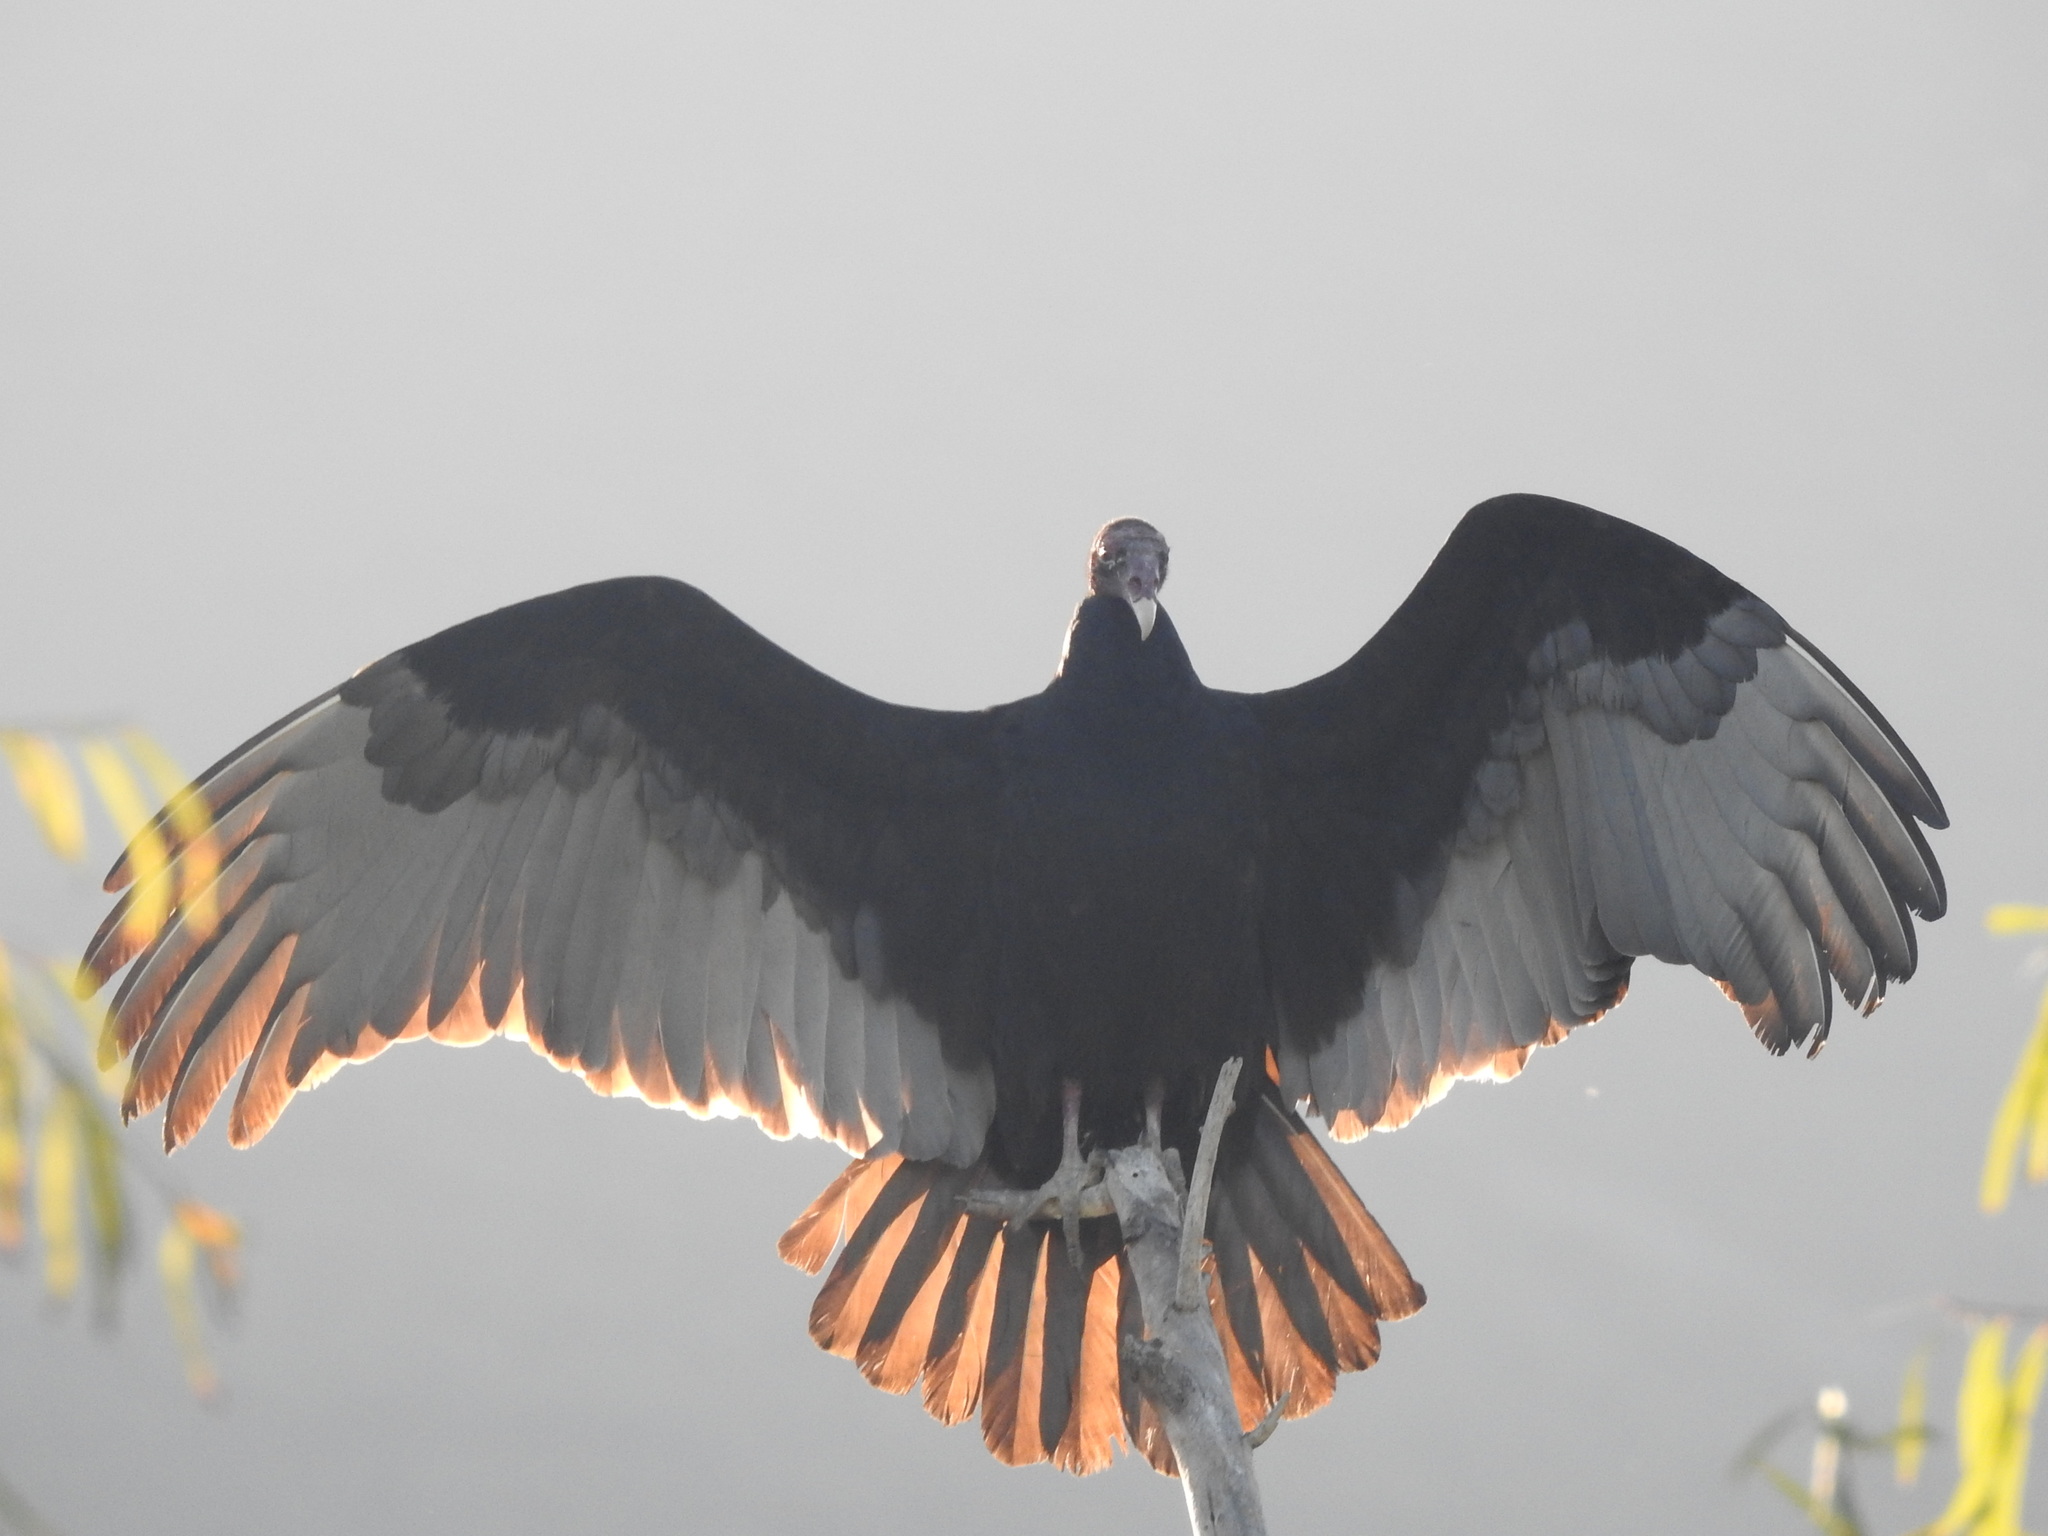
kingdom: Animalia
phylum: Chordata
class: Aves
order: Accipitriformes
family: Cathartidae
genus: Cathartes
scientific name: Cathartes aura
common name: Turkey vulture
